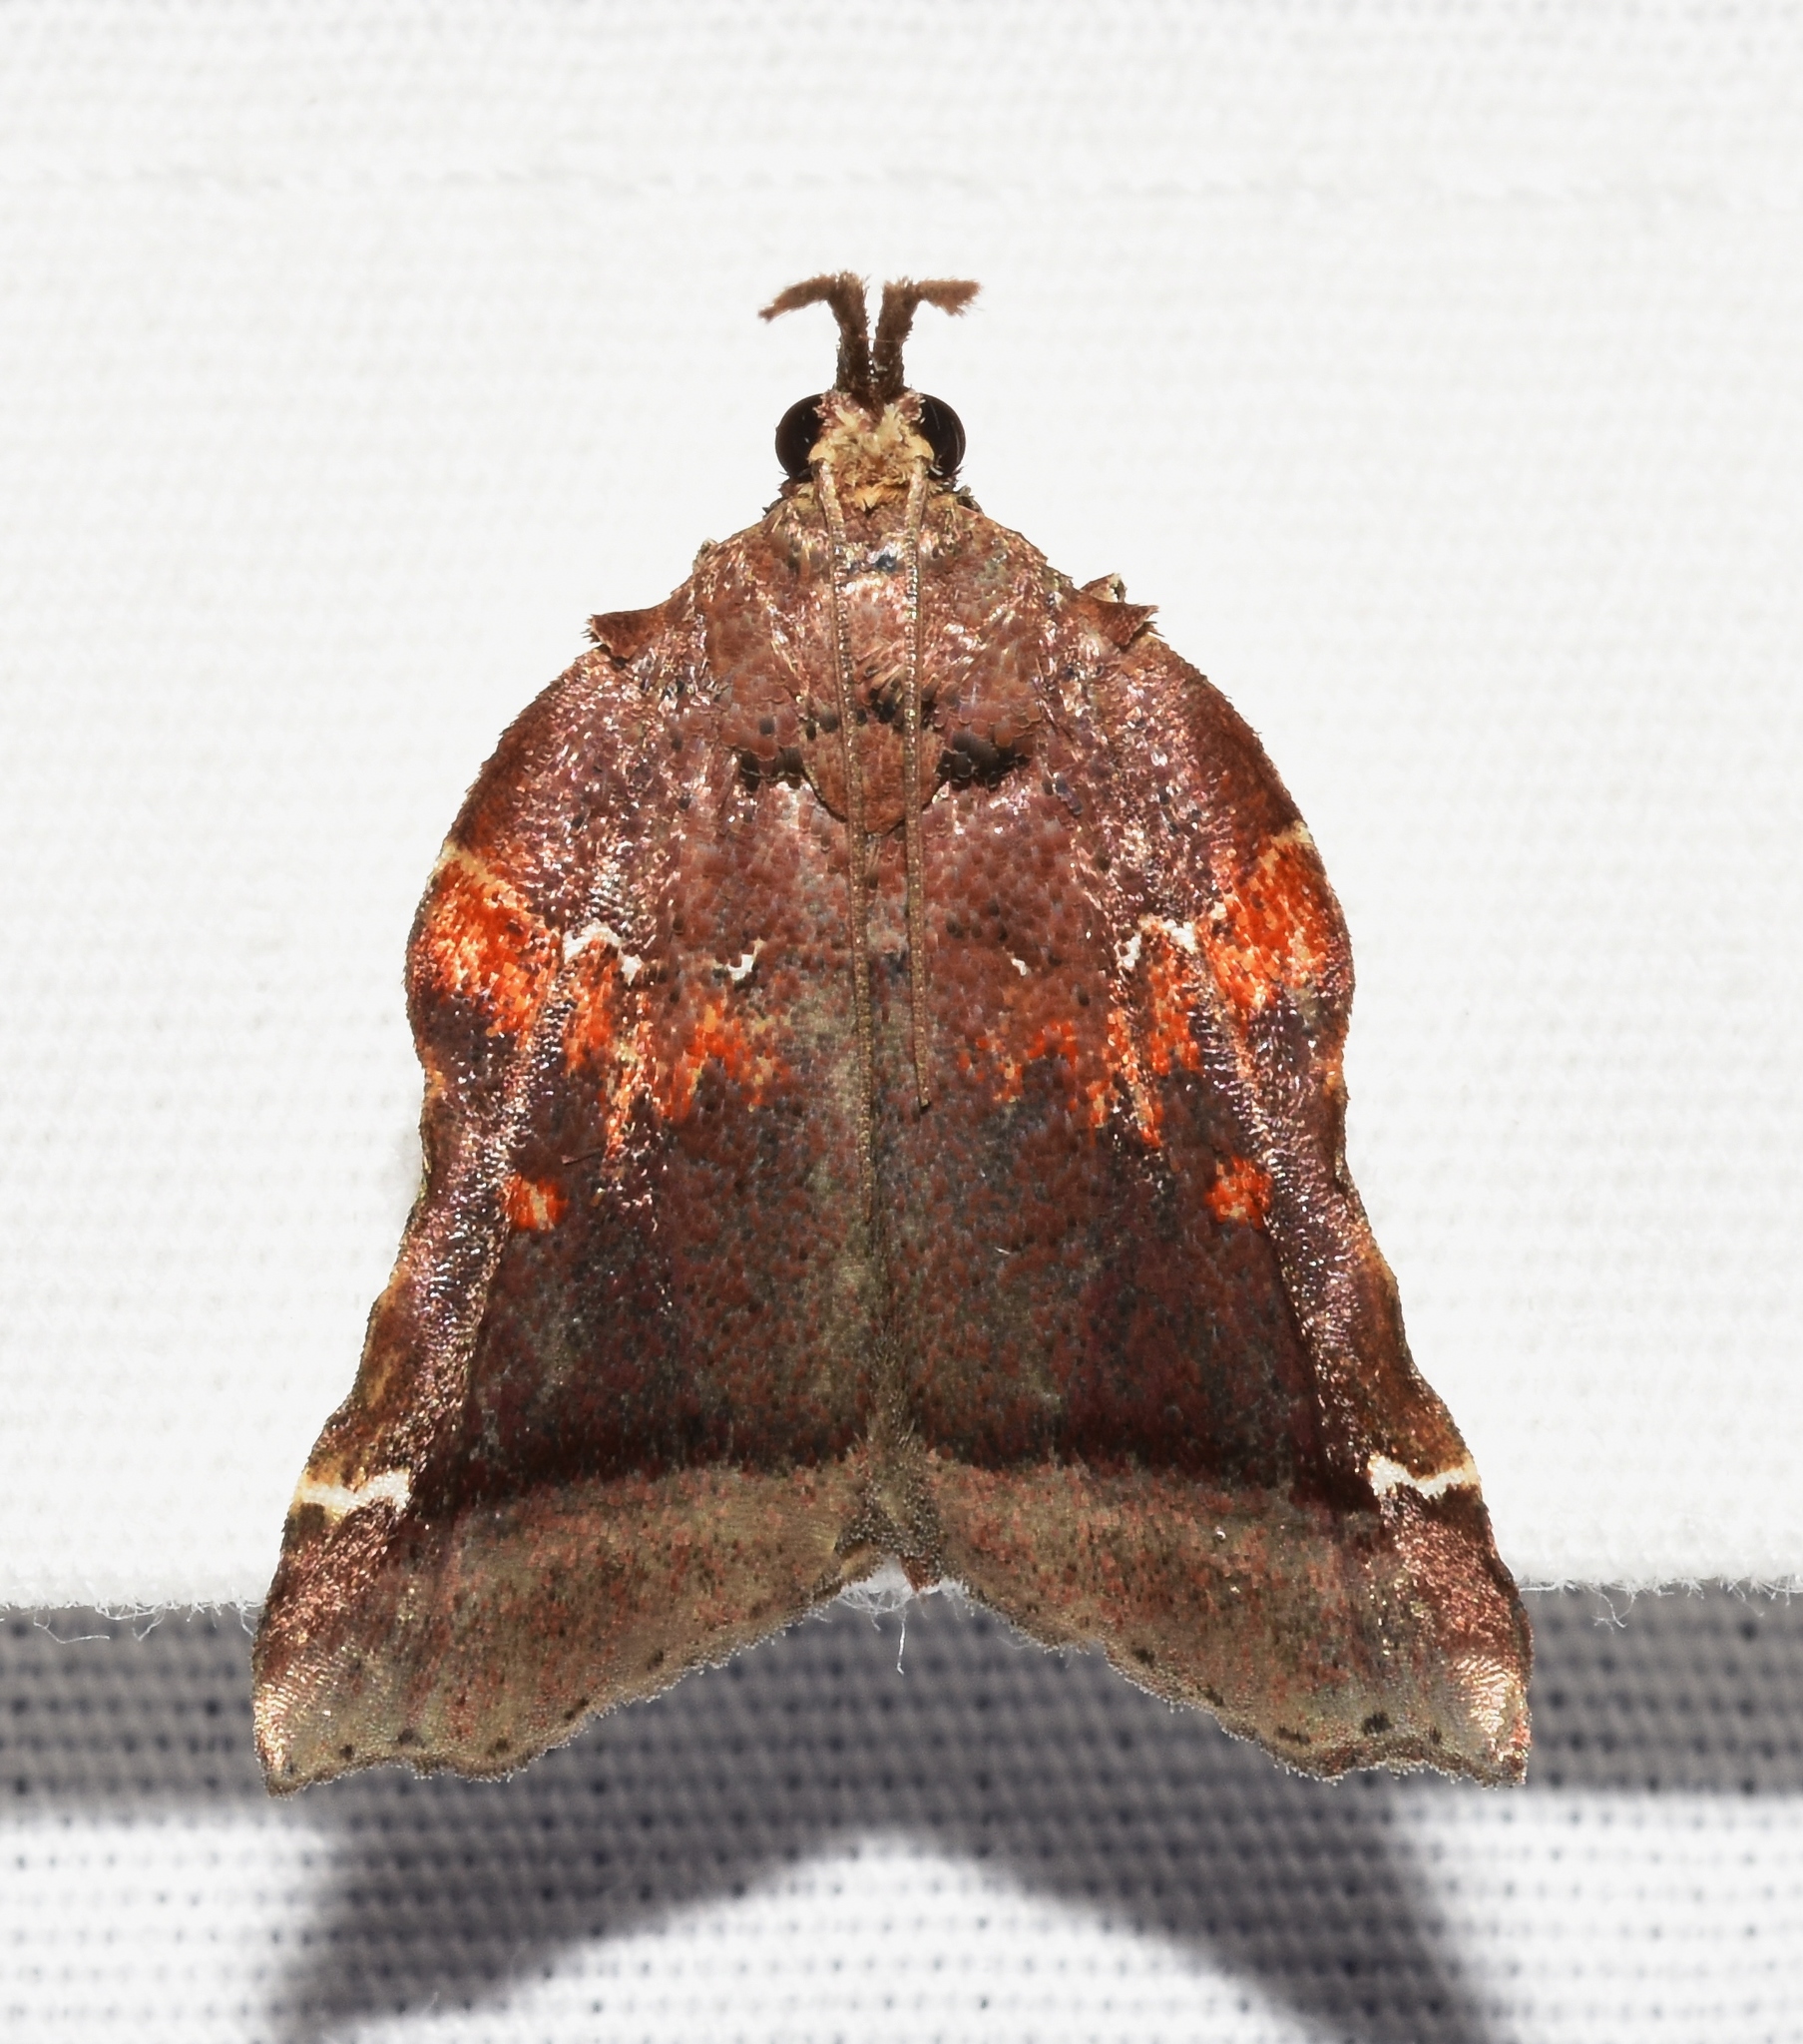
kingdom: Animalia
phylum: Arthropoda
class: Insecta
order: Lepidoptera
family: Pyralidae
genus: Clydonopteron
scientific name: Clydonopteron sacculana
